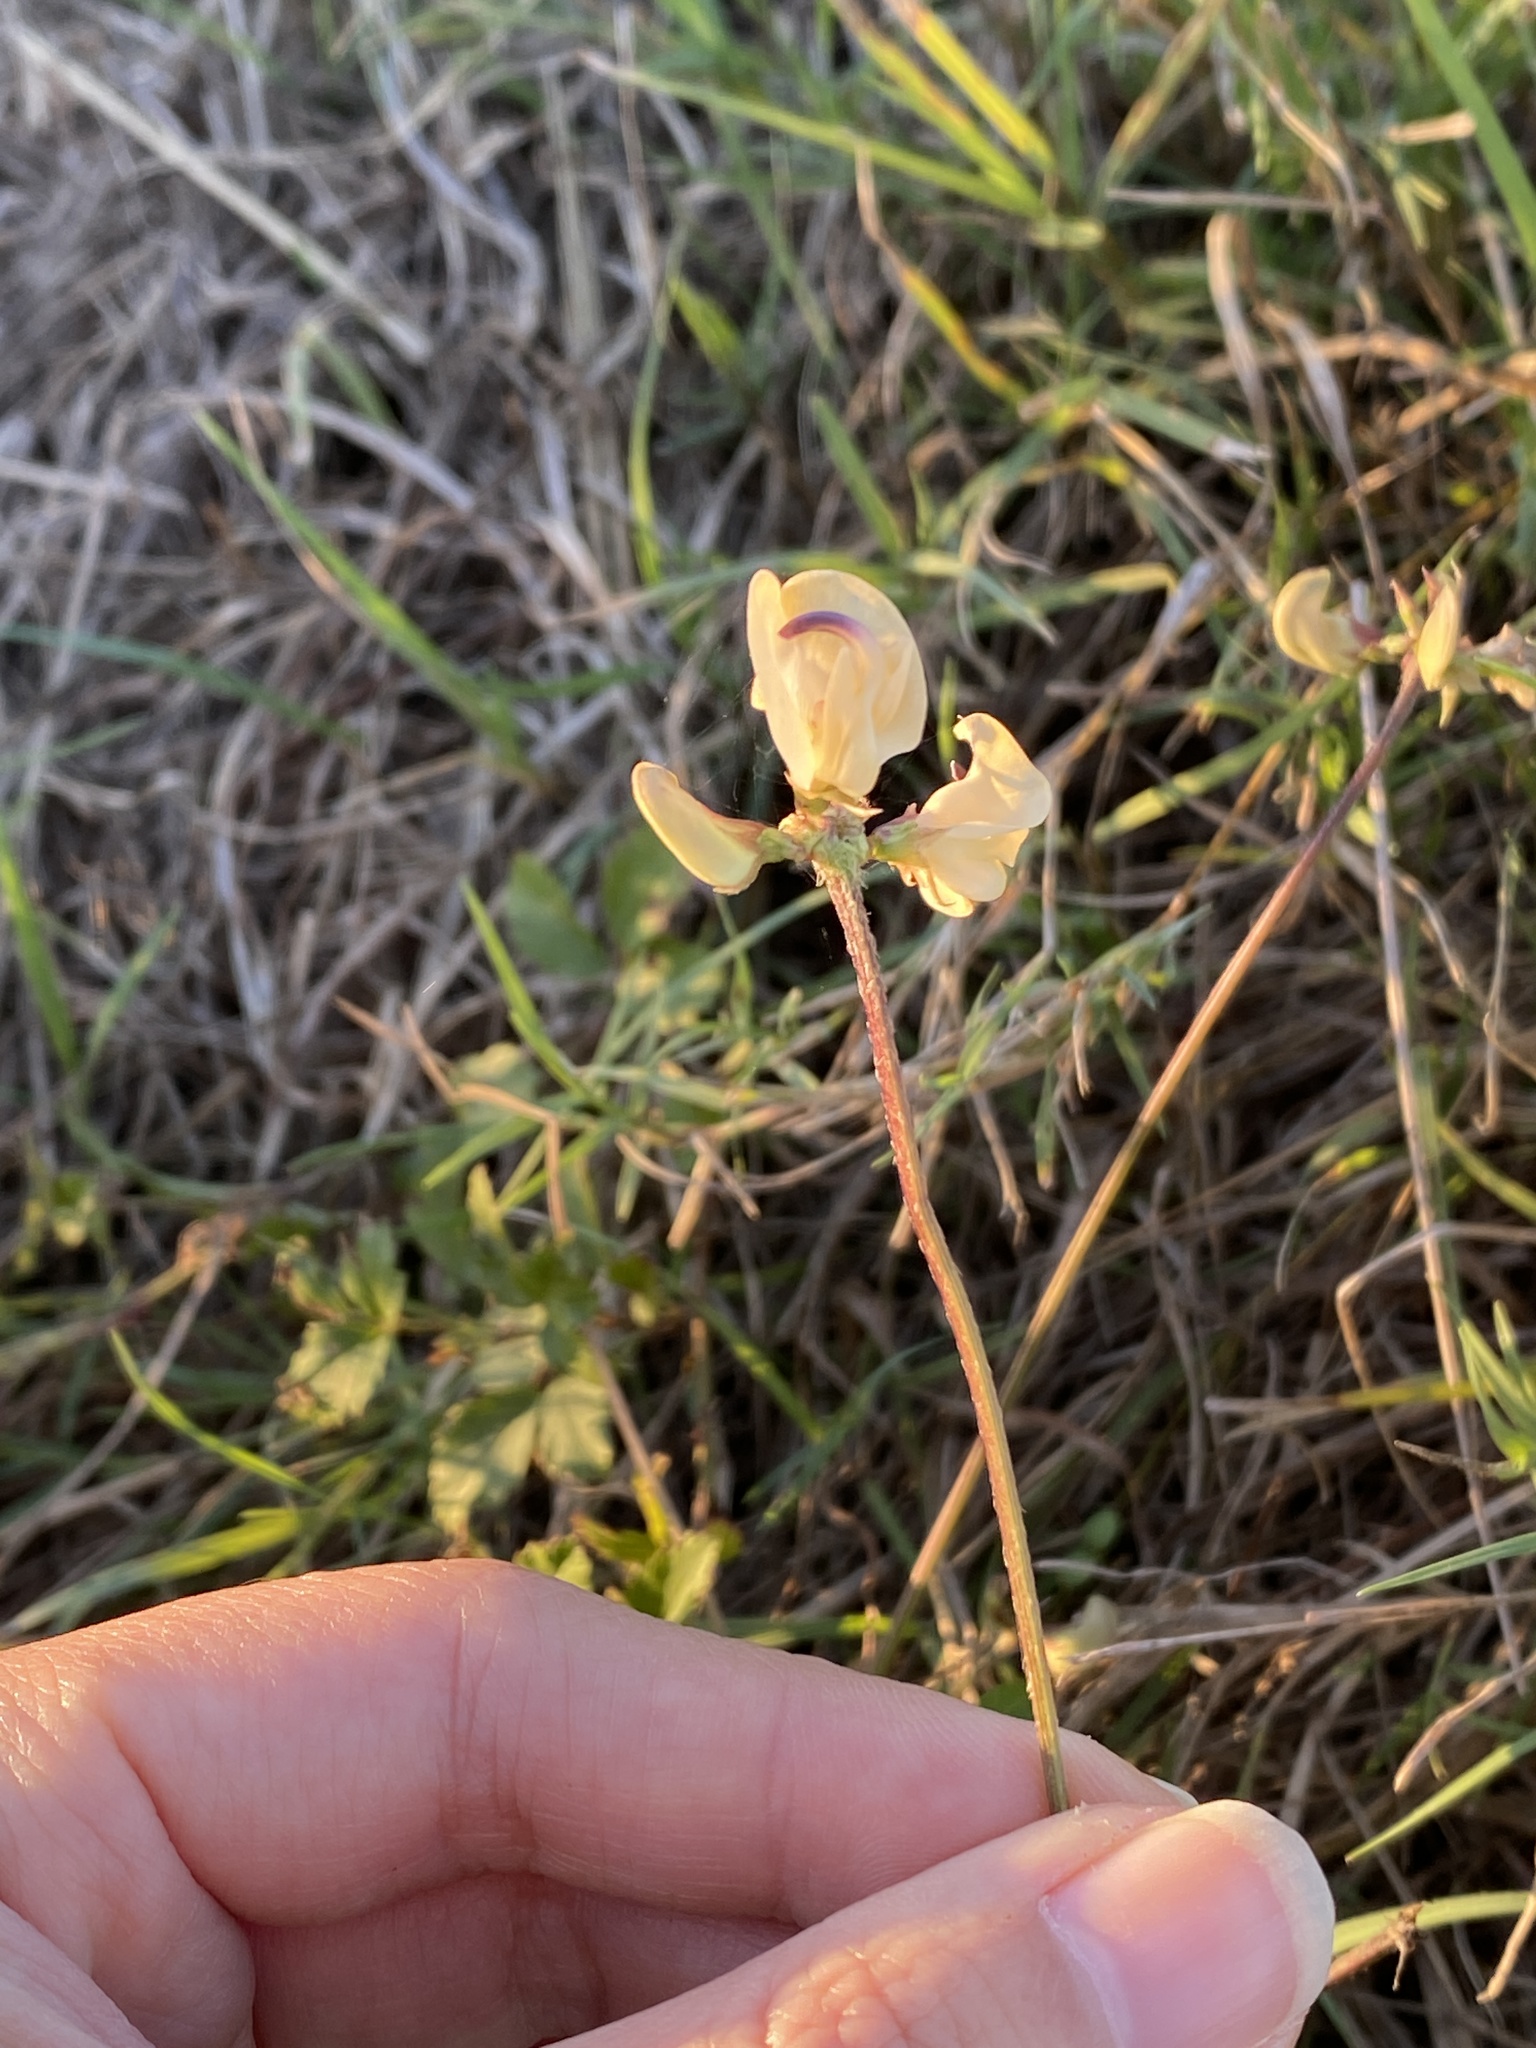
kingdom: Plantae
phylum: Tracheophyta
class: Magnoliopsida
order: Fabales
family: Fabaceae
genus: Strophostyles
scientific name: Strophostyles helvola
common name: Trailing wild bean
